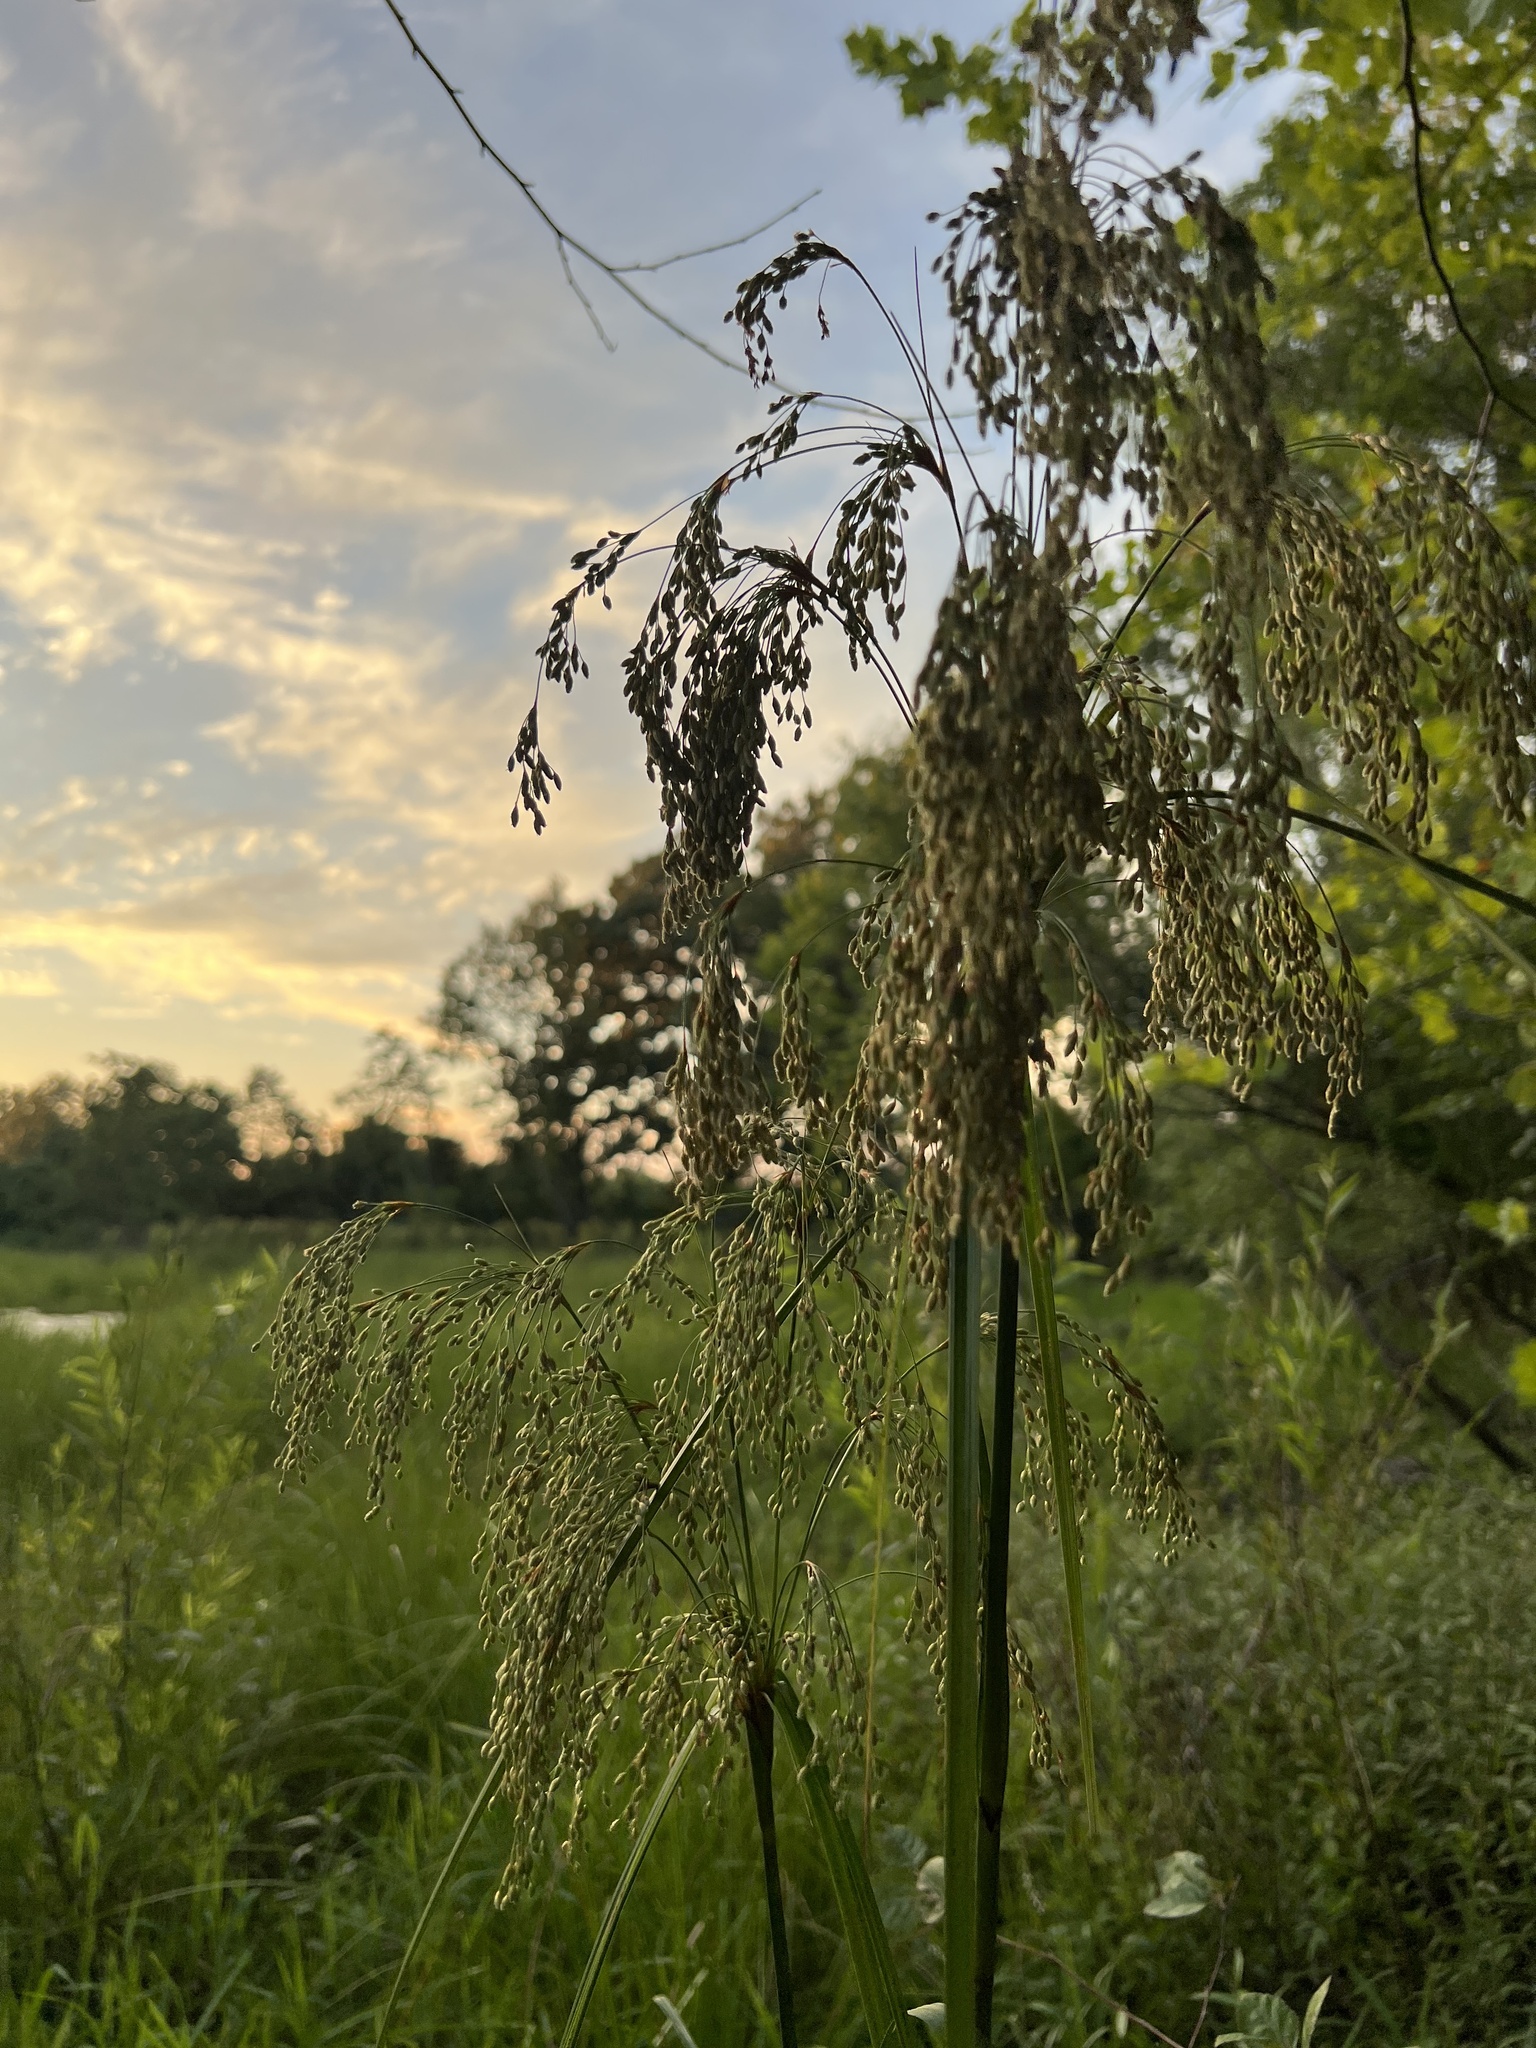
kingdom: Plantae
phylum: Tracheophyta
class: Liliopsida
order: Poales
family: Cyperaceae
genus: Scirpus
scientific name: Scirpus cyperinus
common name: Black-sheathed bulrush
